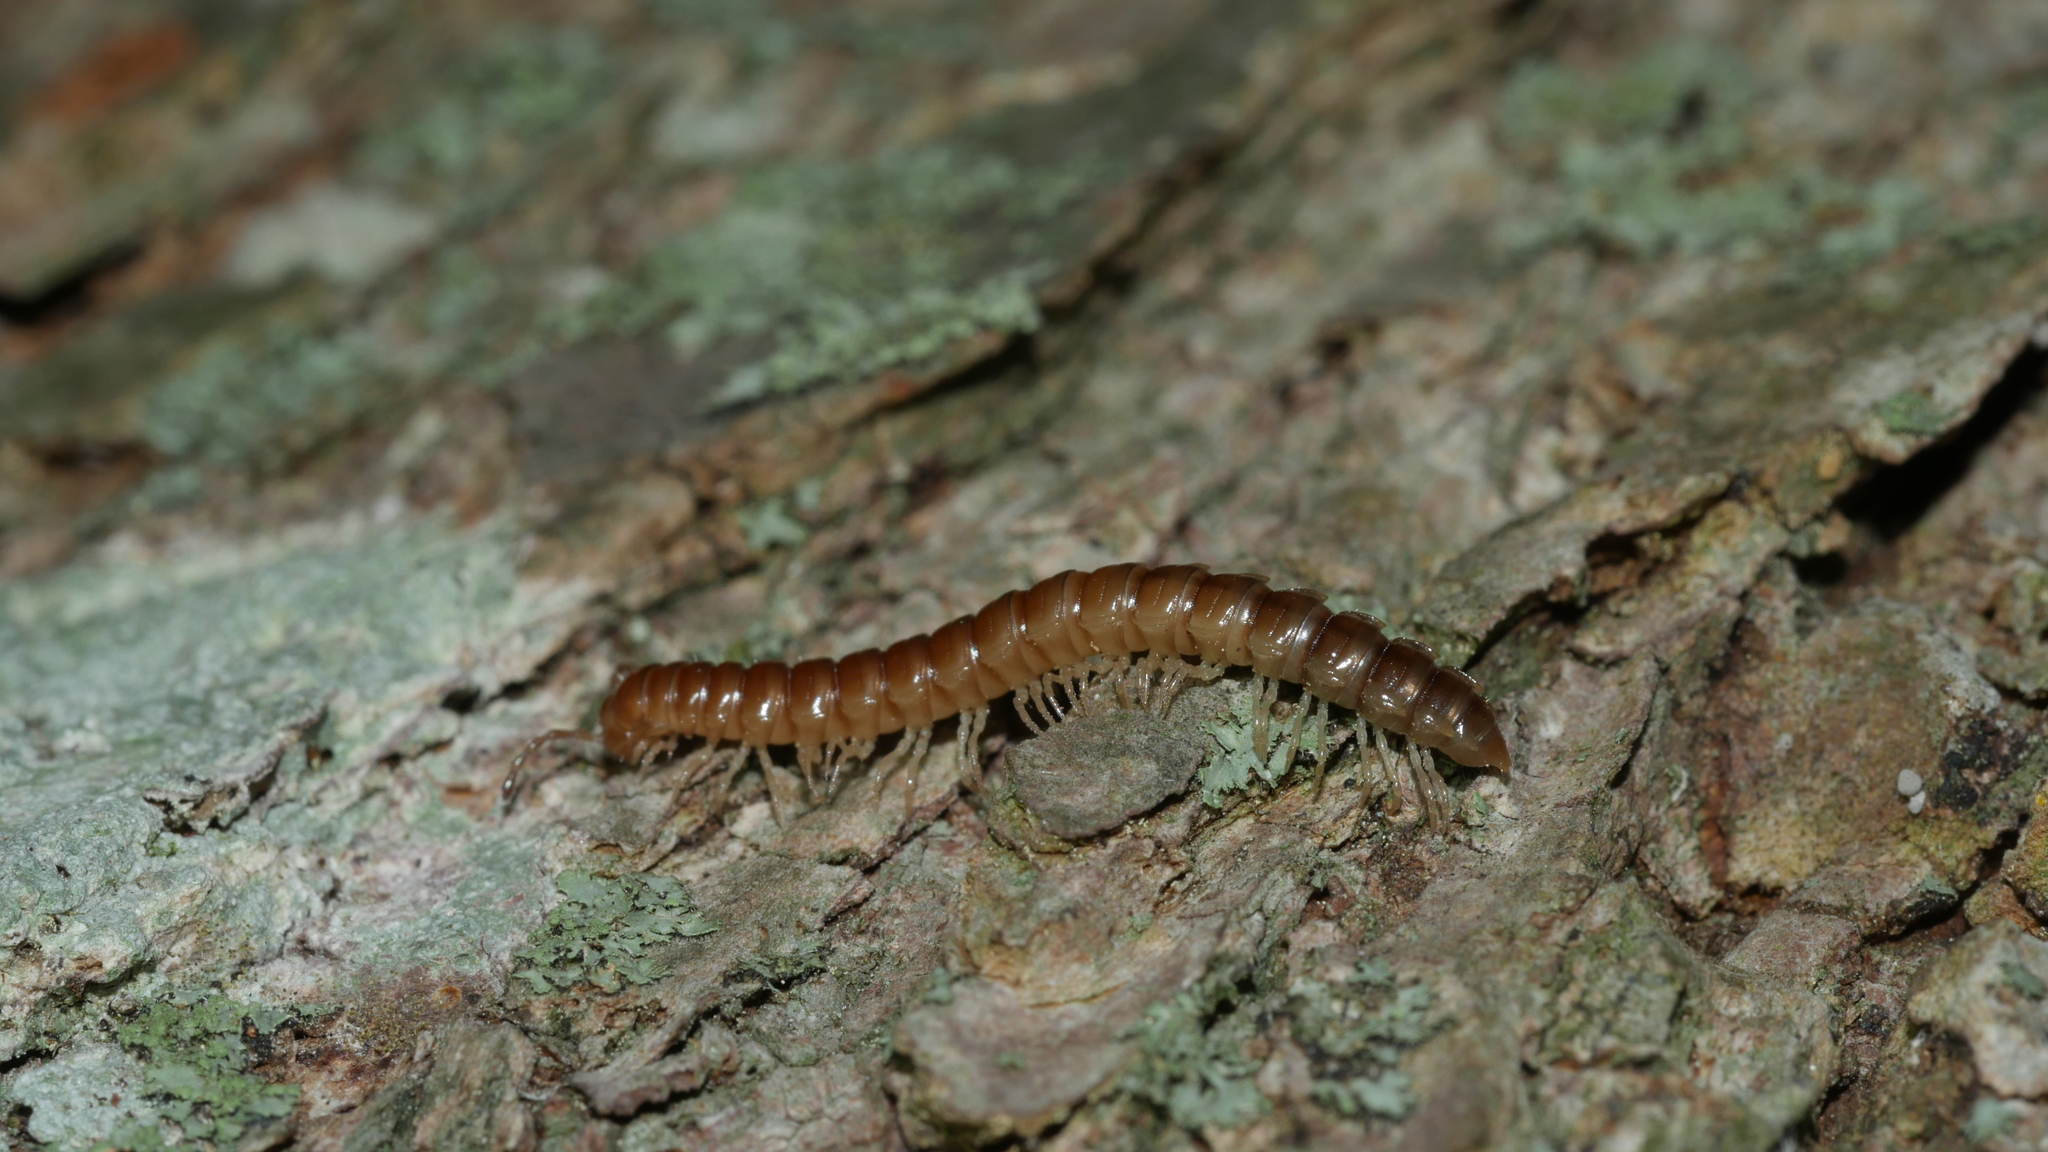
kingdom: Animalia
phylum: Arthropoda
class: Diplopoda
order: Polydesmida
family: Paradoxosomatidae
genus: Oxidus
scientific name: Oxidus gracilis
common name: Greenhouse millipede
